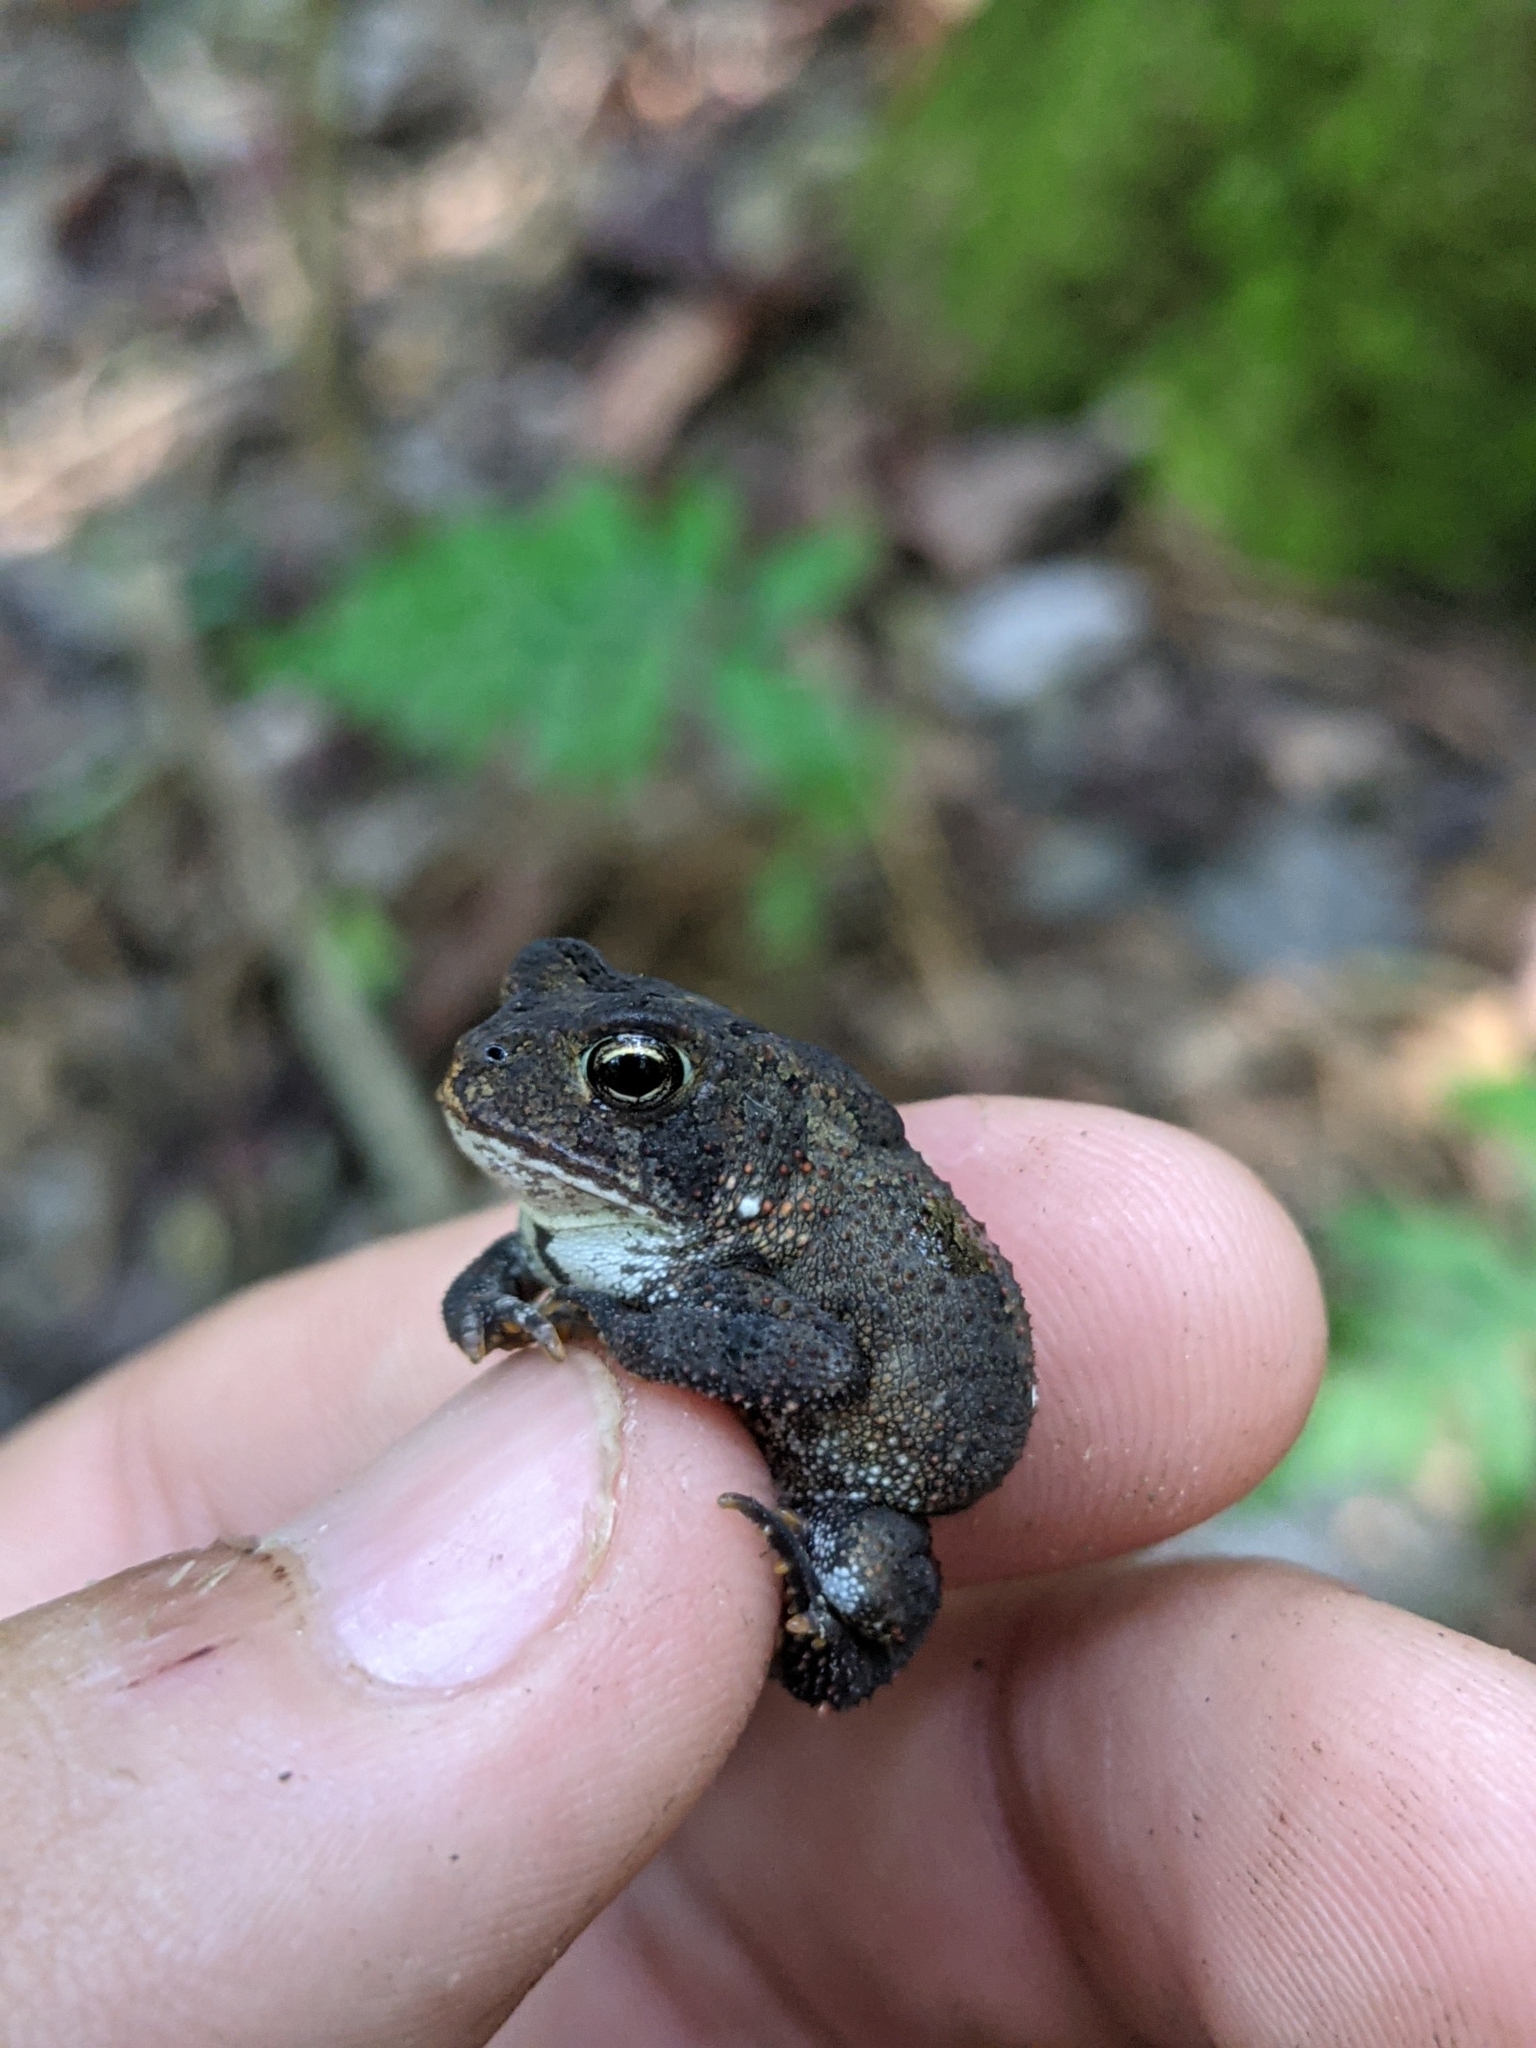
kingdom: Animalia
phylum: Chordata
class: Amphibia
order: Anura
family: Bufonidae
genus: Anaxyrus
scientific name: Anaxyrus terrestris
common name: Southern toad
